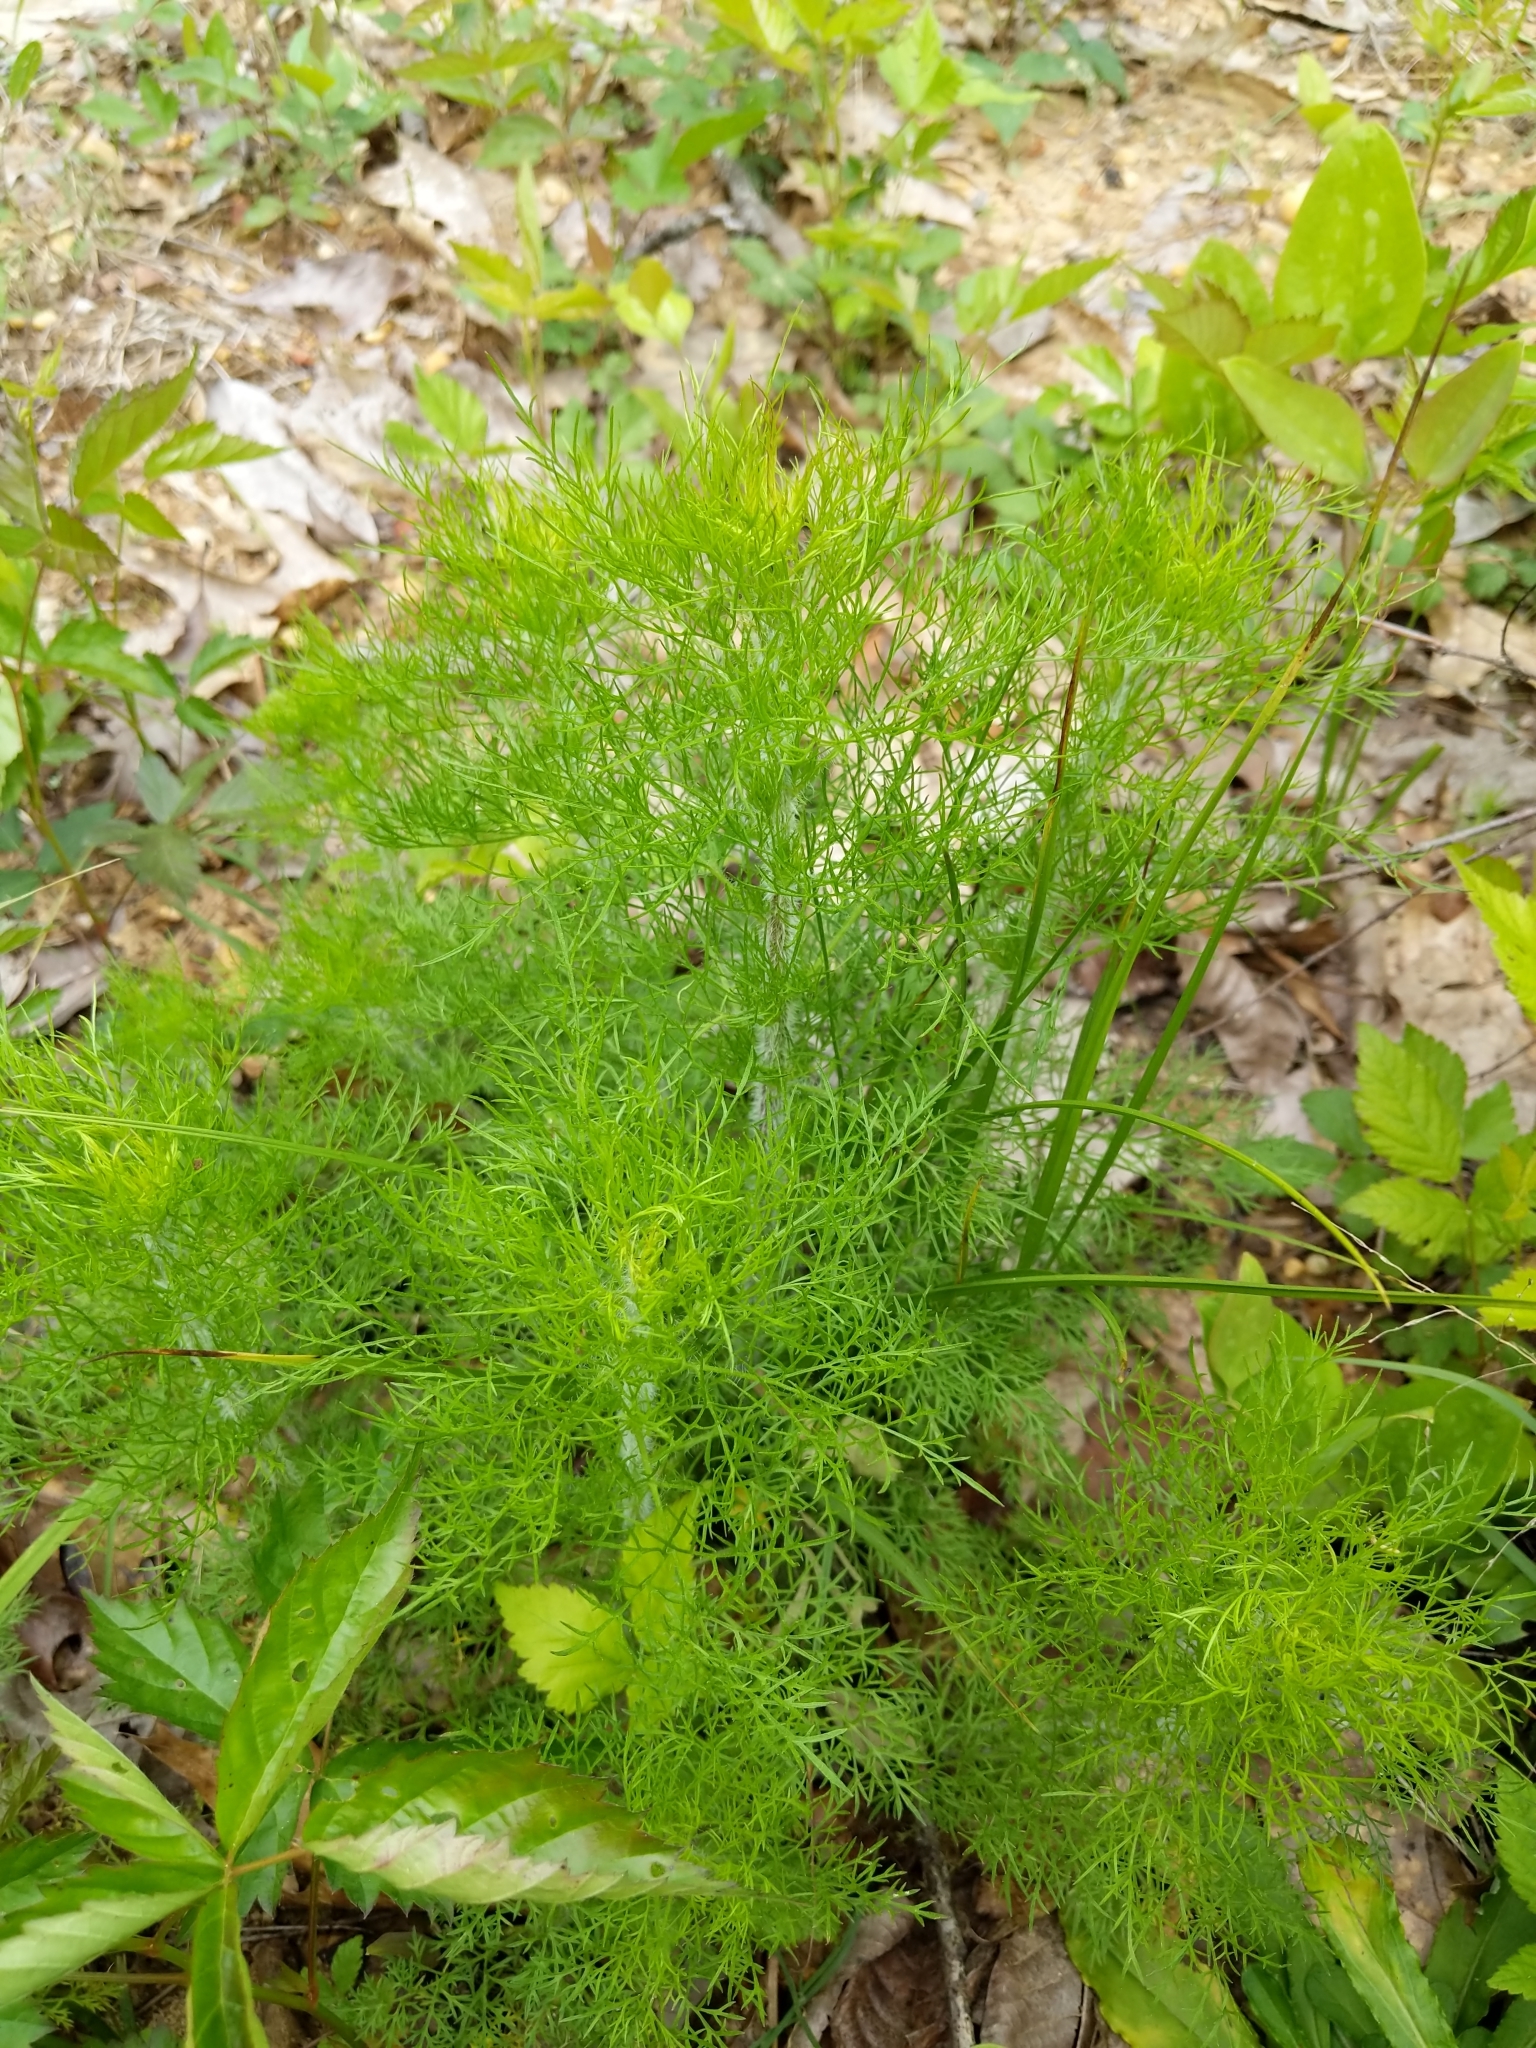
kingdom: Plantae
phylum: Tracheophyta
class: Magnoliopsida
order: Asterales
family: Asteraceae
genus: Eupatorium
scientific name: Eupatorium capillifolium
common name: Dog-fennel
